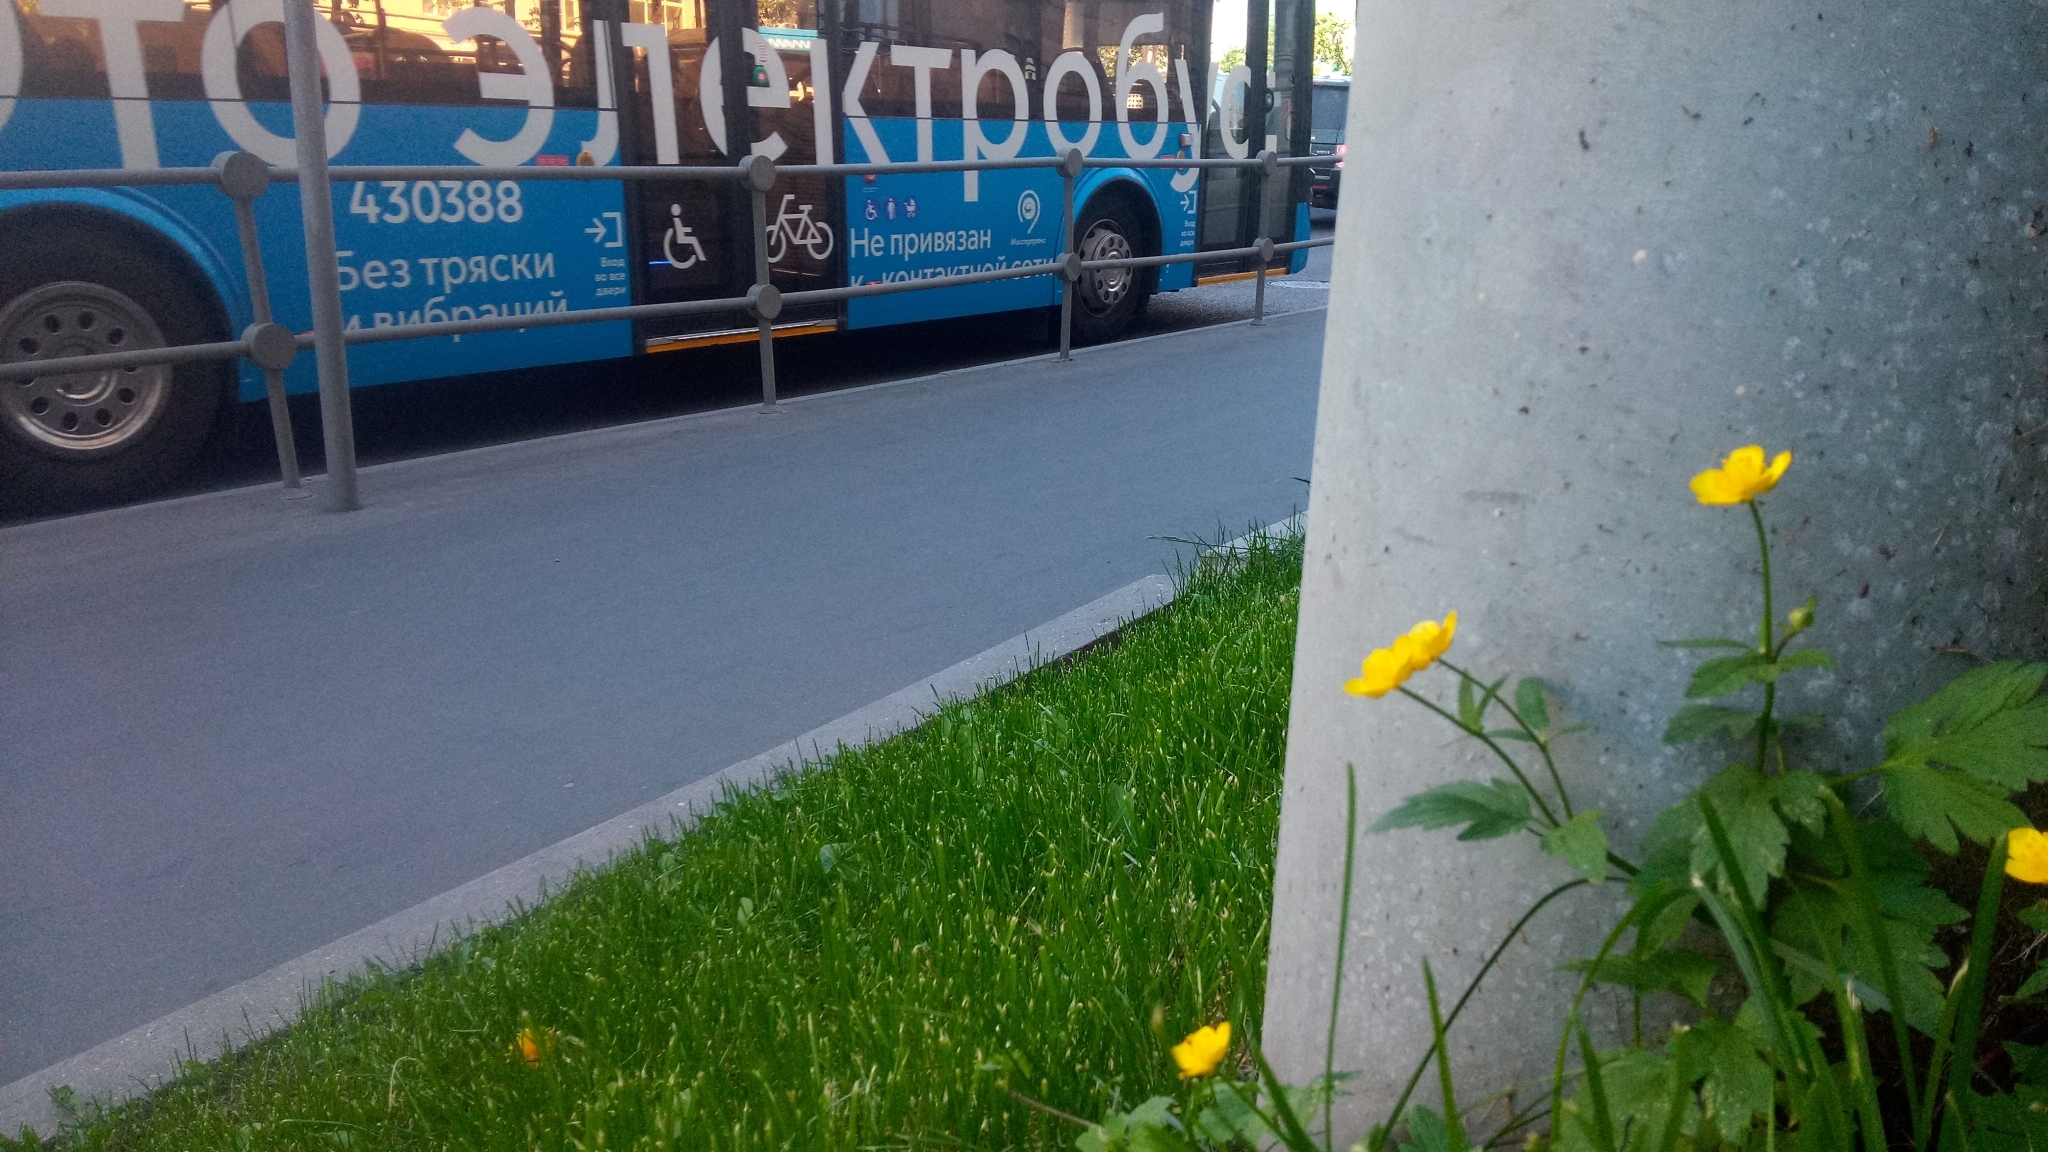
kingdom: Plantae
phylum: Tracheophyta
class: Magnoliopsida
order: Ranunculales
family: Ranunculaceae
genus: Ranunculus
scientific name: Ranunculus repens
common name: Creeping buttercup
